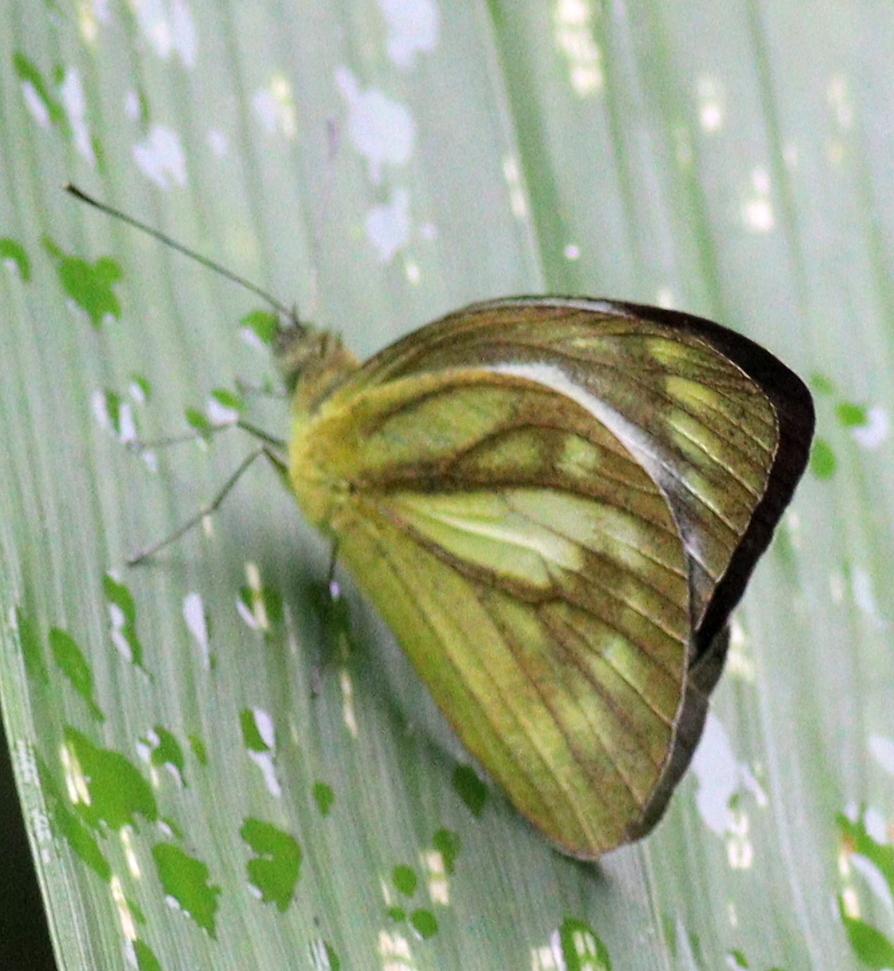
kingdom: Animalia
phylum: Arthropoda
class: Insecta
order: Lepidoptera
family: Pieridae
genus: Cepora
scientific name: Cepora nadina
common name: Lesser gull
